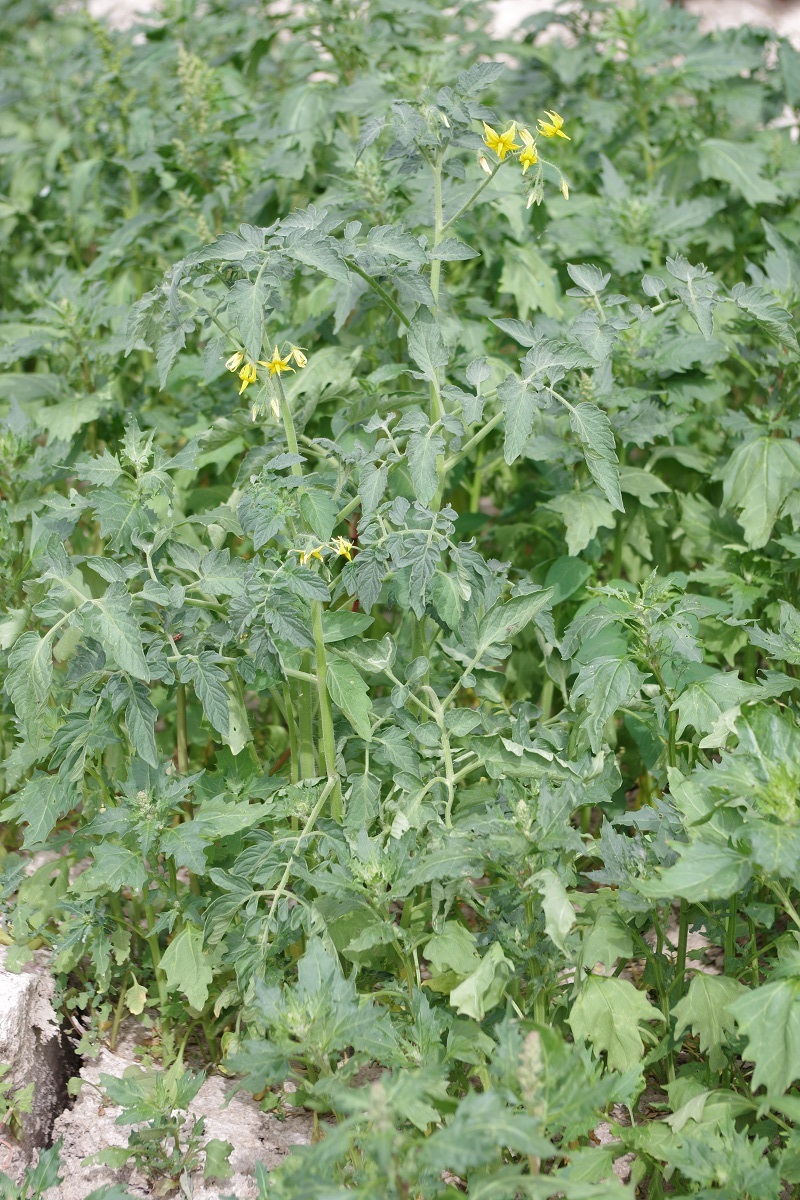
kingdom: Plantae
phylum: Tracheophyta
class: Magnoliopsida
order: Solanales
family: Solanaceae
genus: Solanum
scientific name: Solanum lycopersicum
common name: Garden tomato
